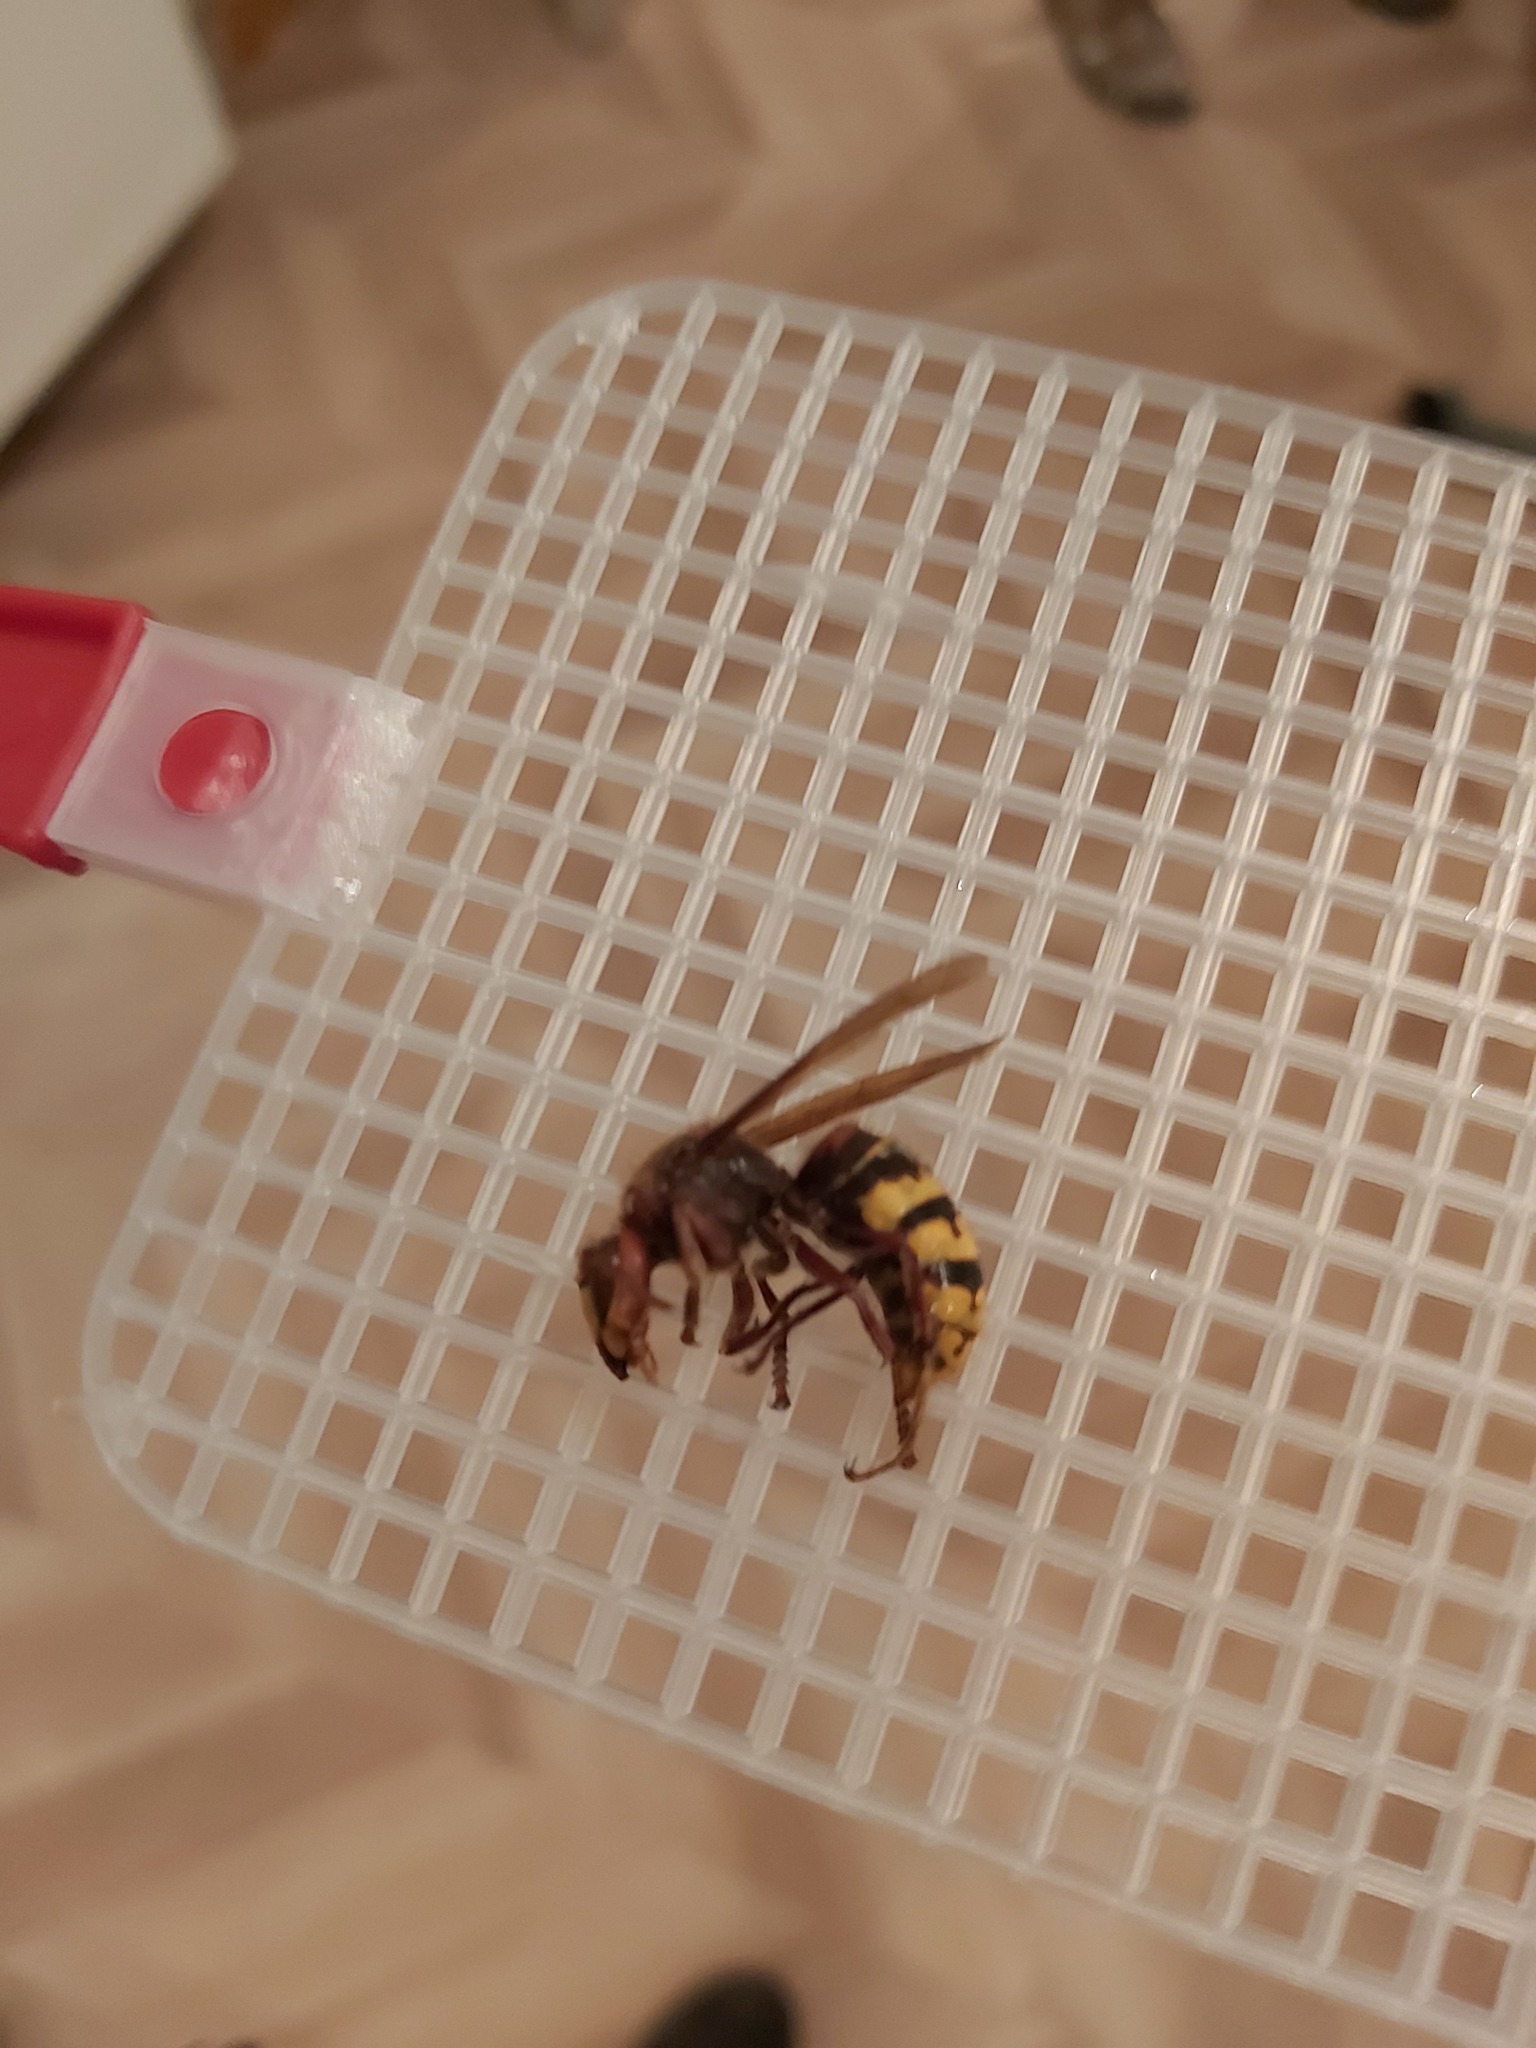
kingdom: Animalia
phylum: Arthropoda
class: Insecta
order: Hymenoptera
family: Vespidae
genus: Vespa
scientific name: Vespa crabro
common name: Hornet
